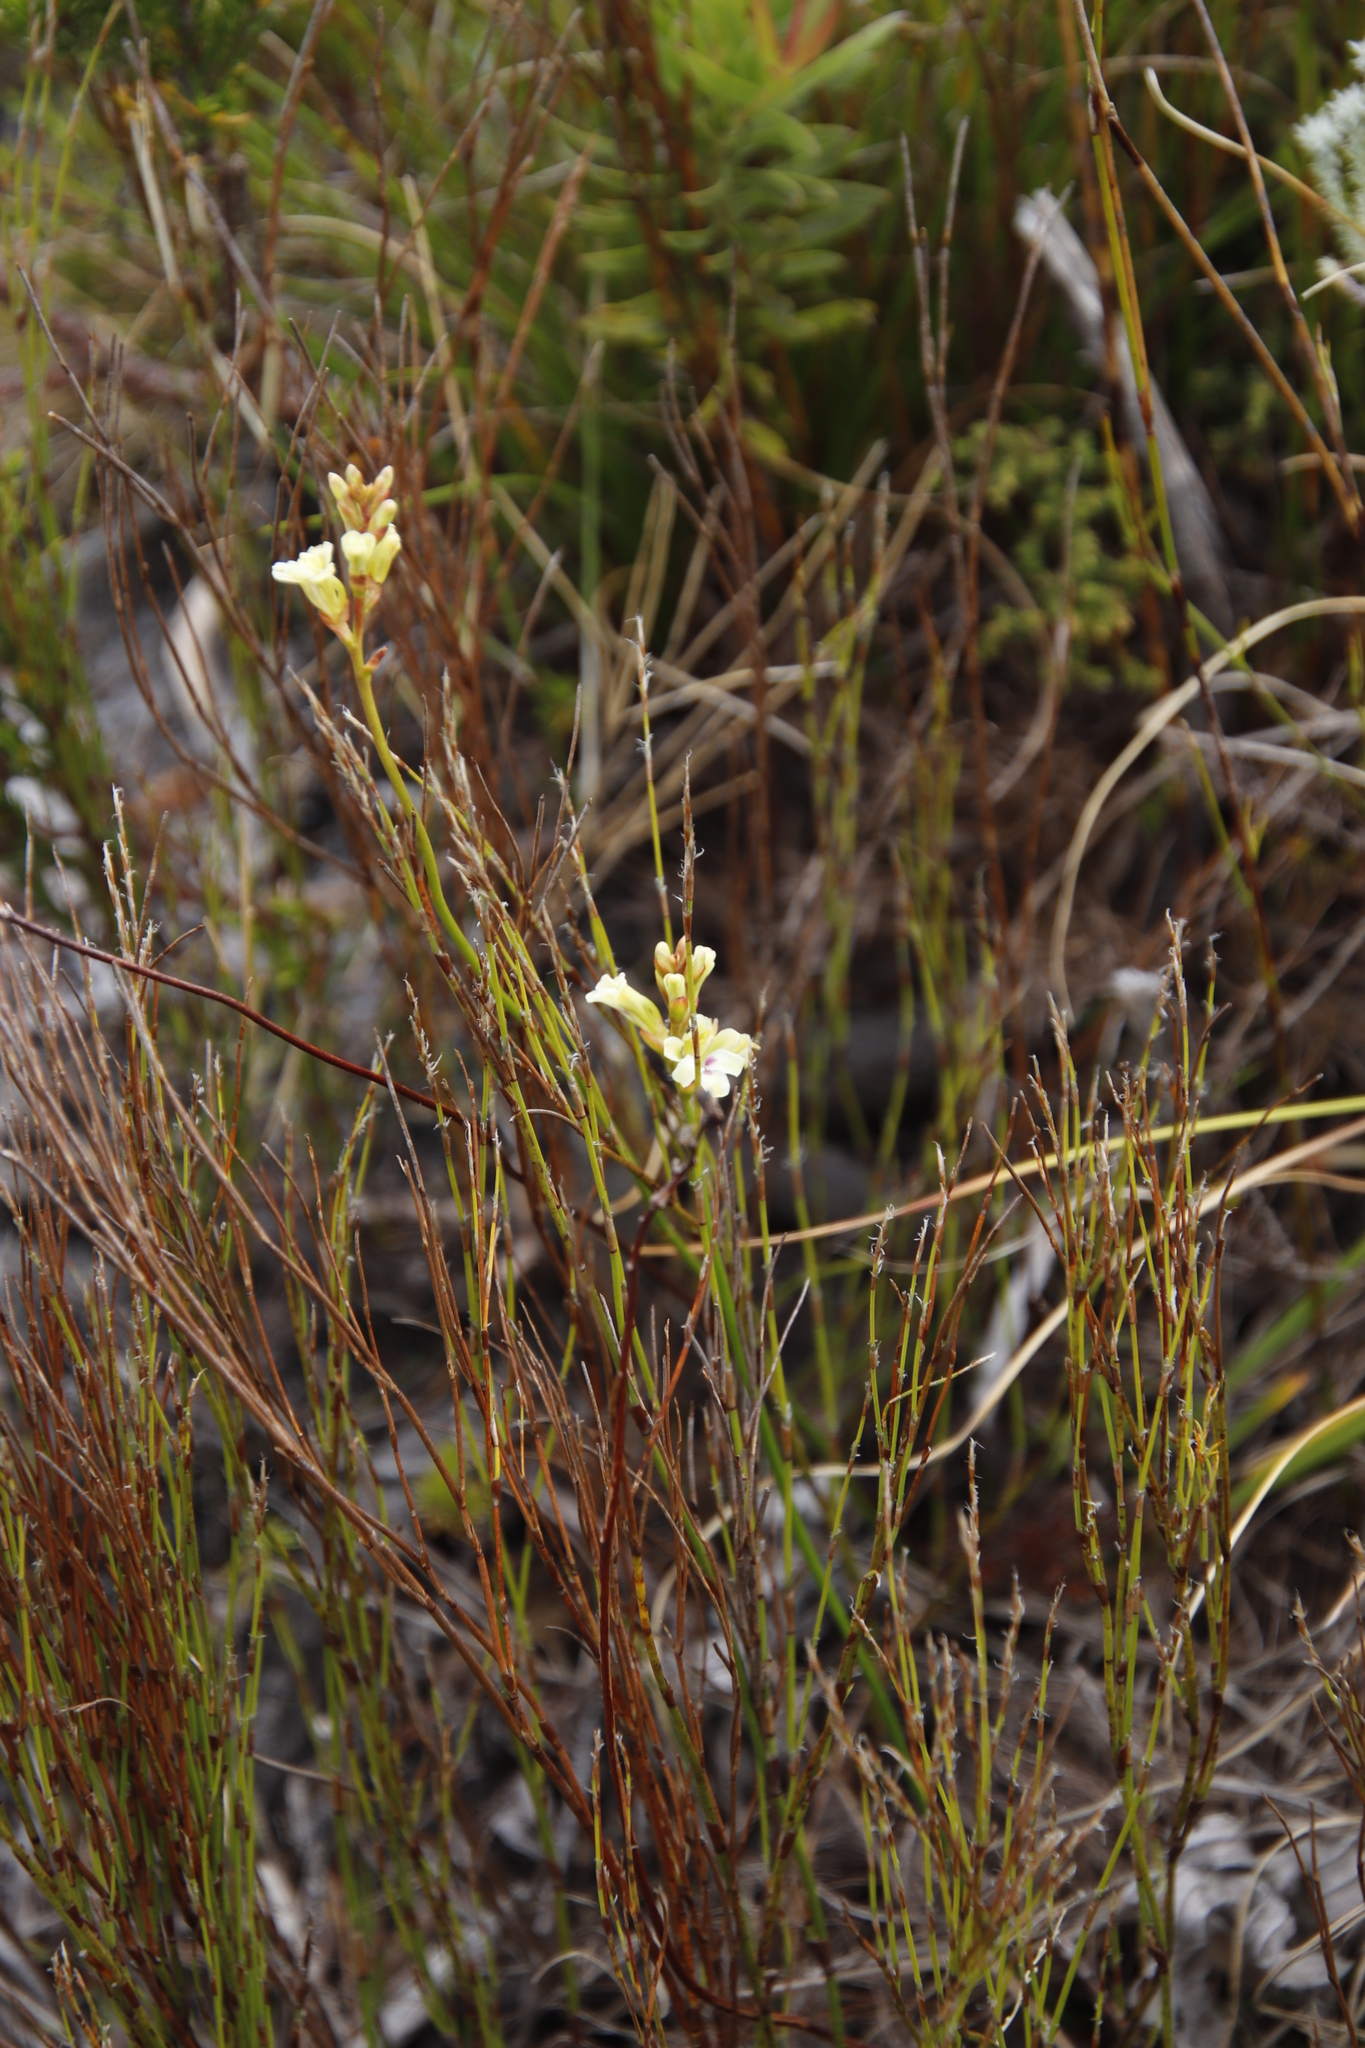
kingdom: Plantae
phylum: Tracheophyta
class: Liliopsida
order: Asparagales
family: Iridaceae
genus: Tritoniopsis
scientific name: Tritoniopsis unguicularis
